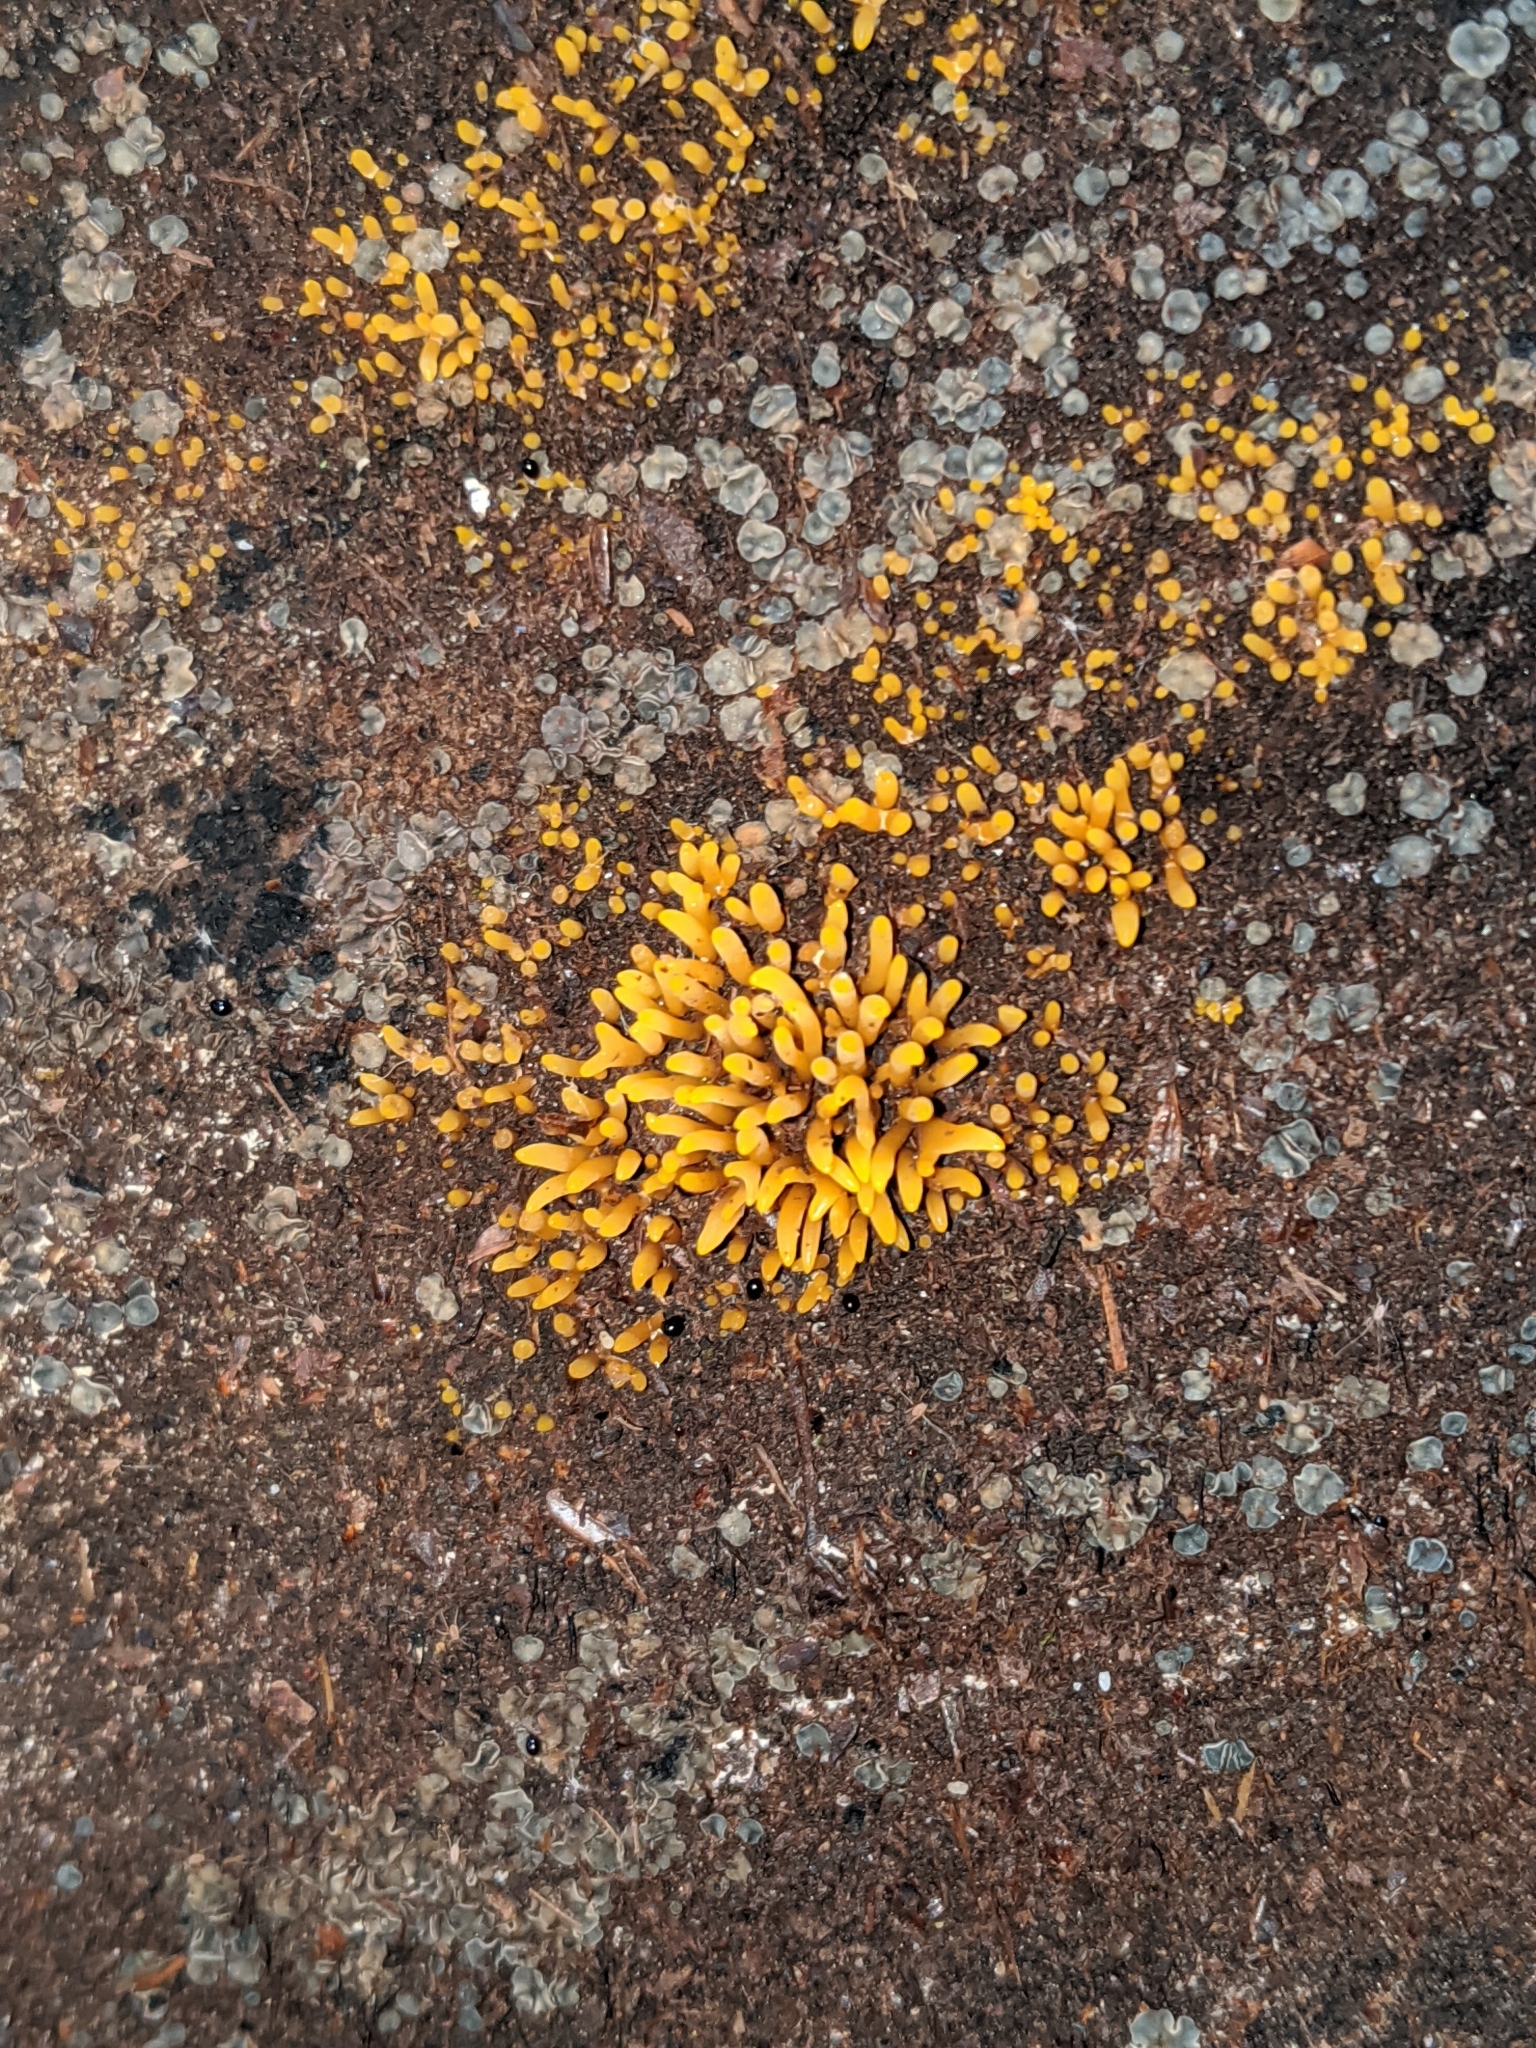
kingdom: Fungi
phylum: Basidiomycota
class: Dacrymycetes
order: Dacrymycetales
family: Dacrymycetaceae
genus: Calocera
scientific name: Calocera cornea
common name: Small stagshorn
